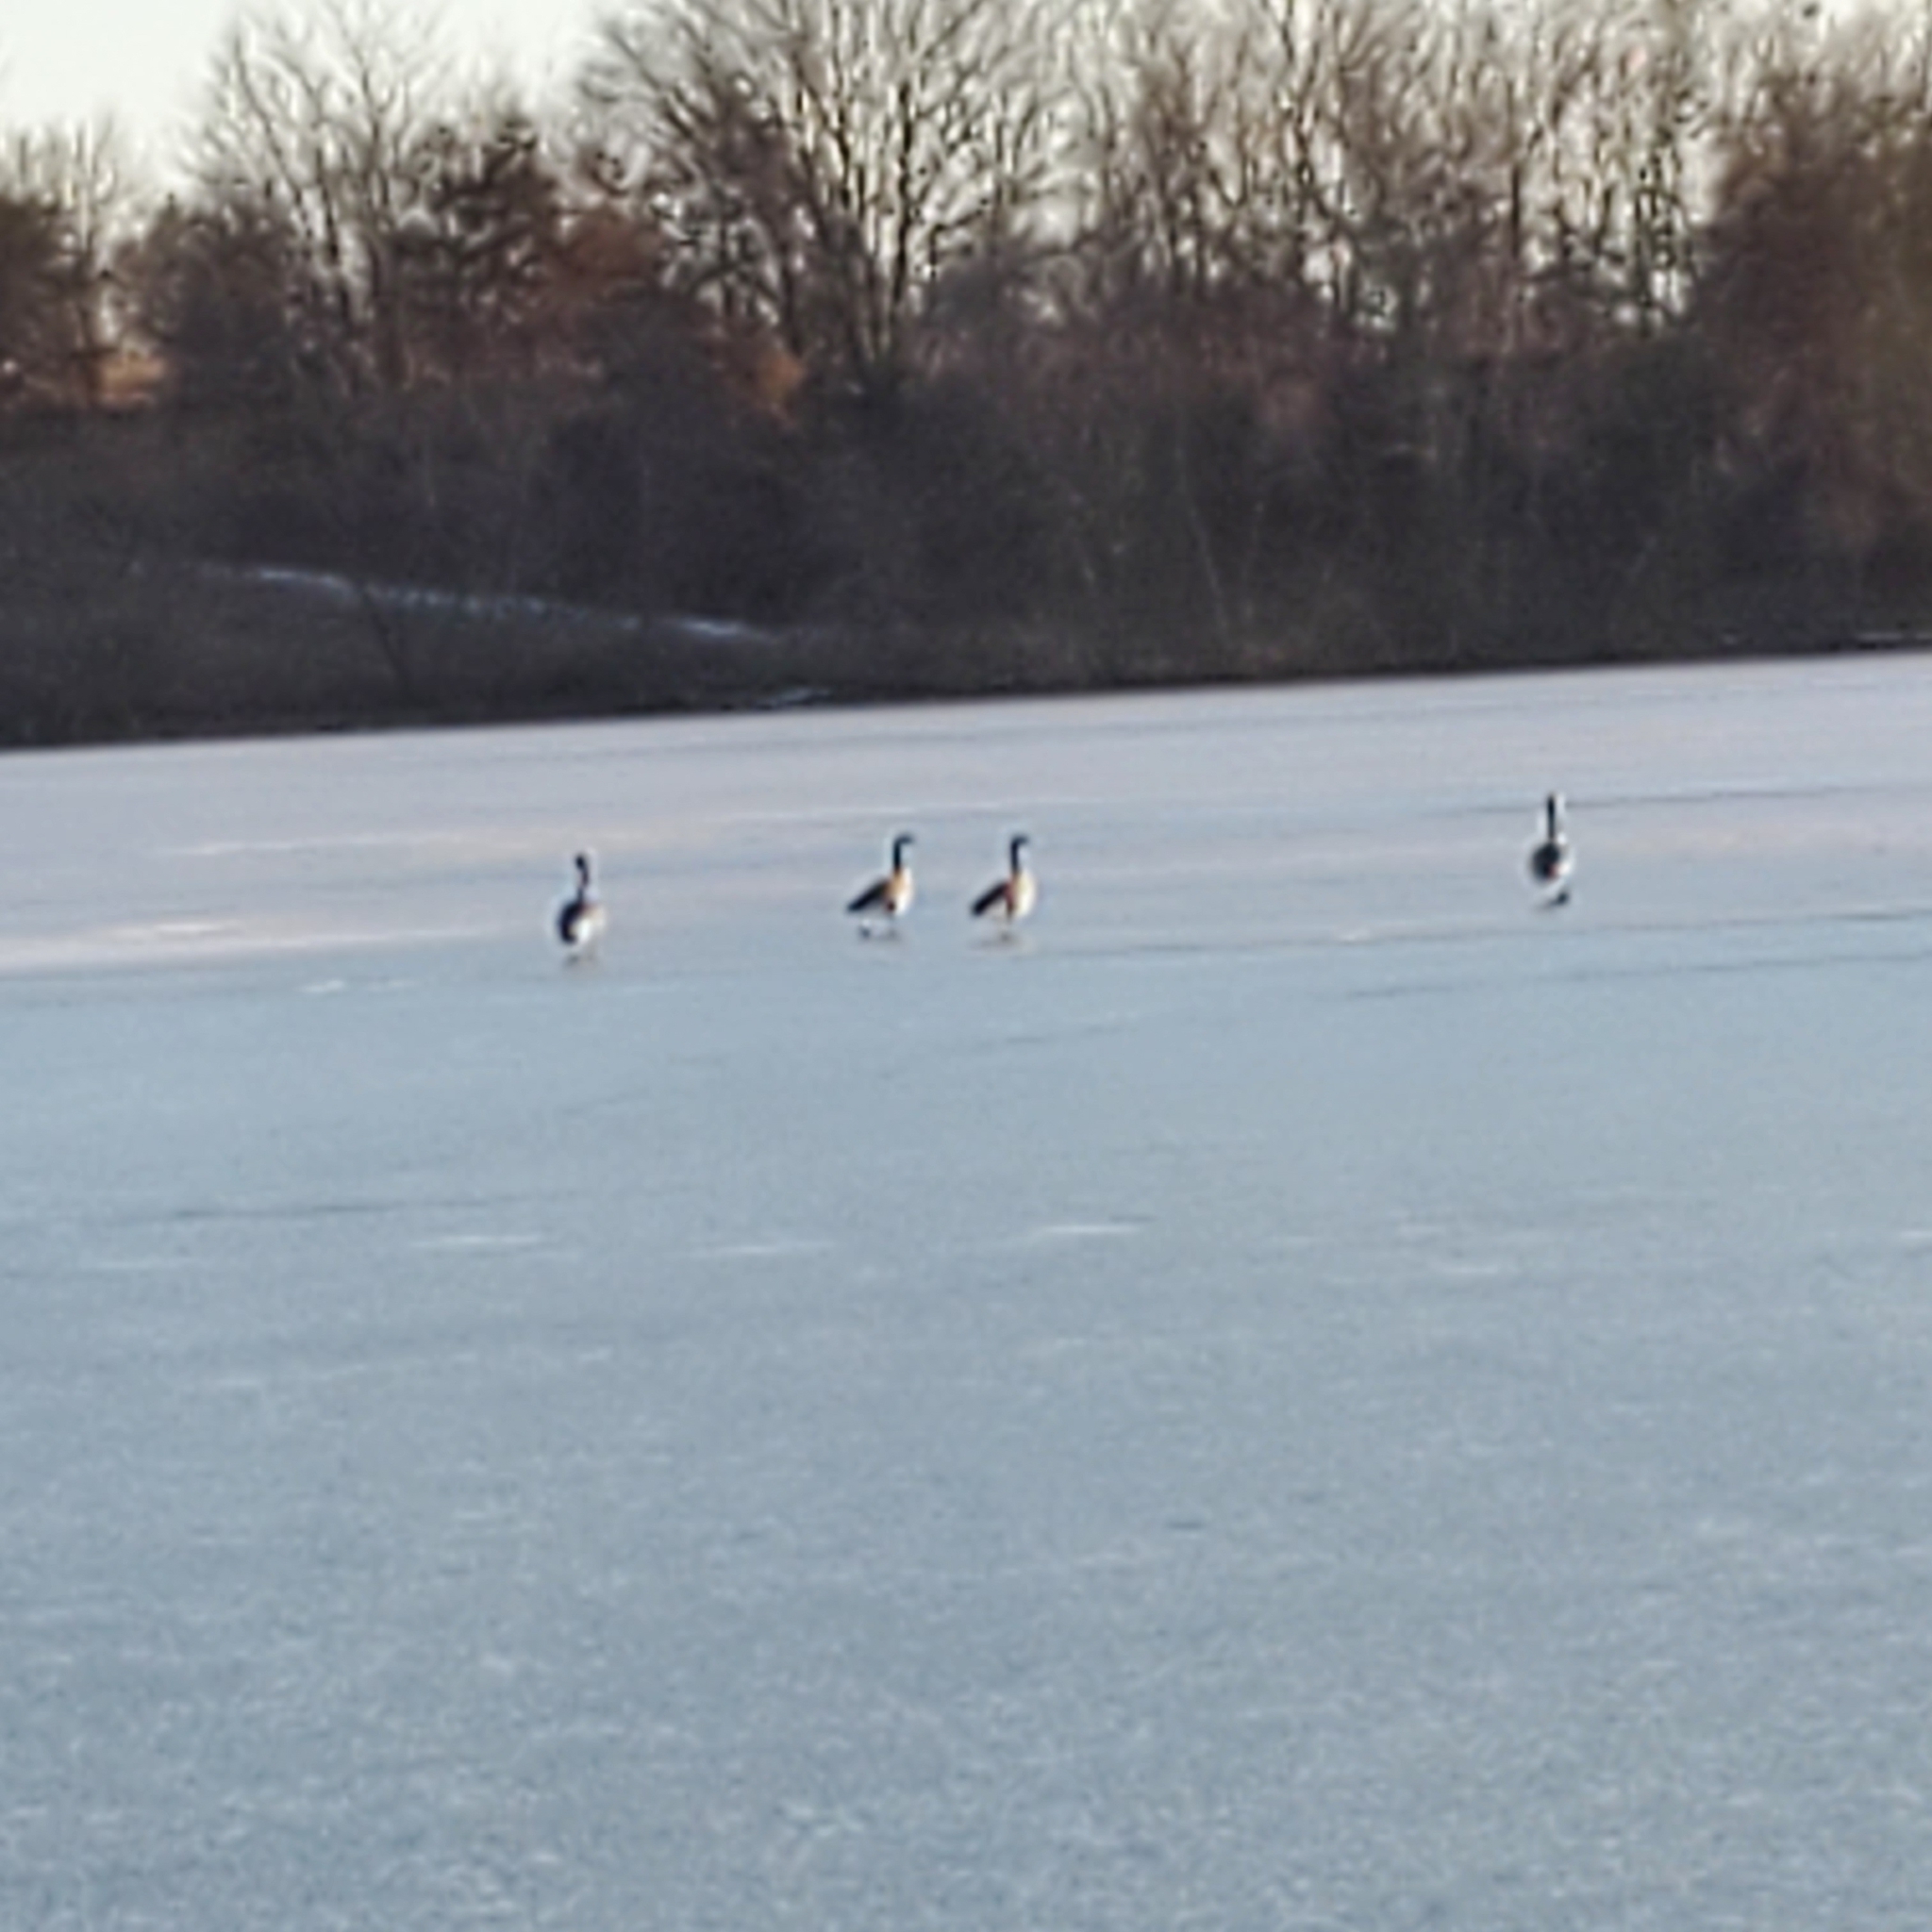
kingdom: Animalia
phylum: Chordata
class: Aves
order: Anseriformes
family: Anatidae
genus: Branta
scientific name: Branta canadensis
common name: Canada goose
